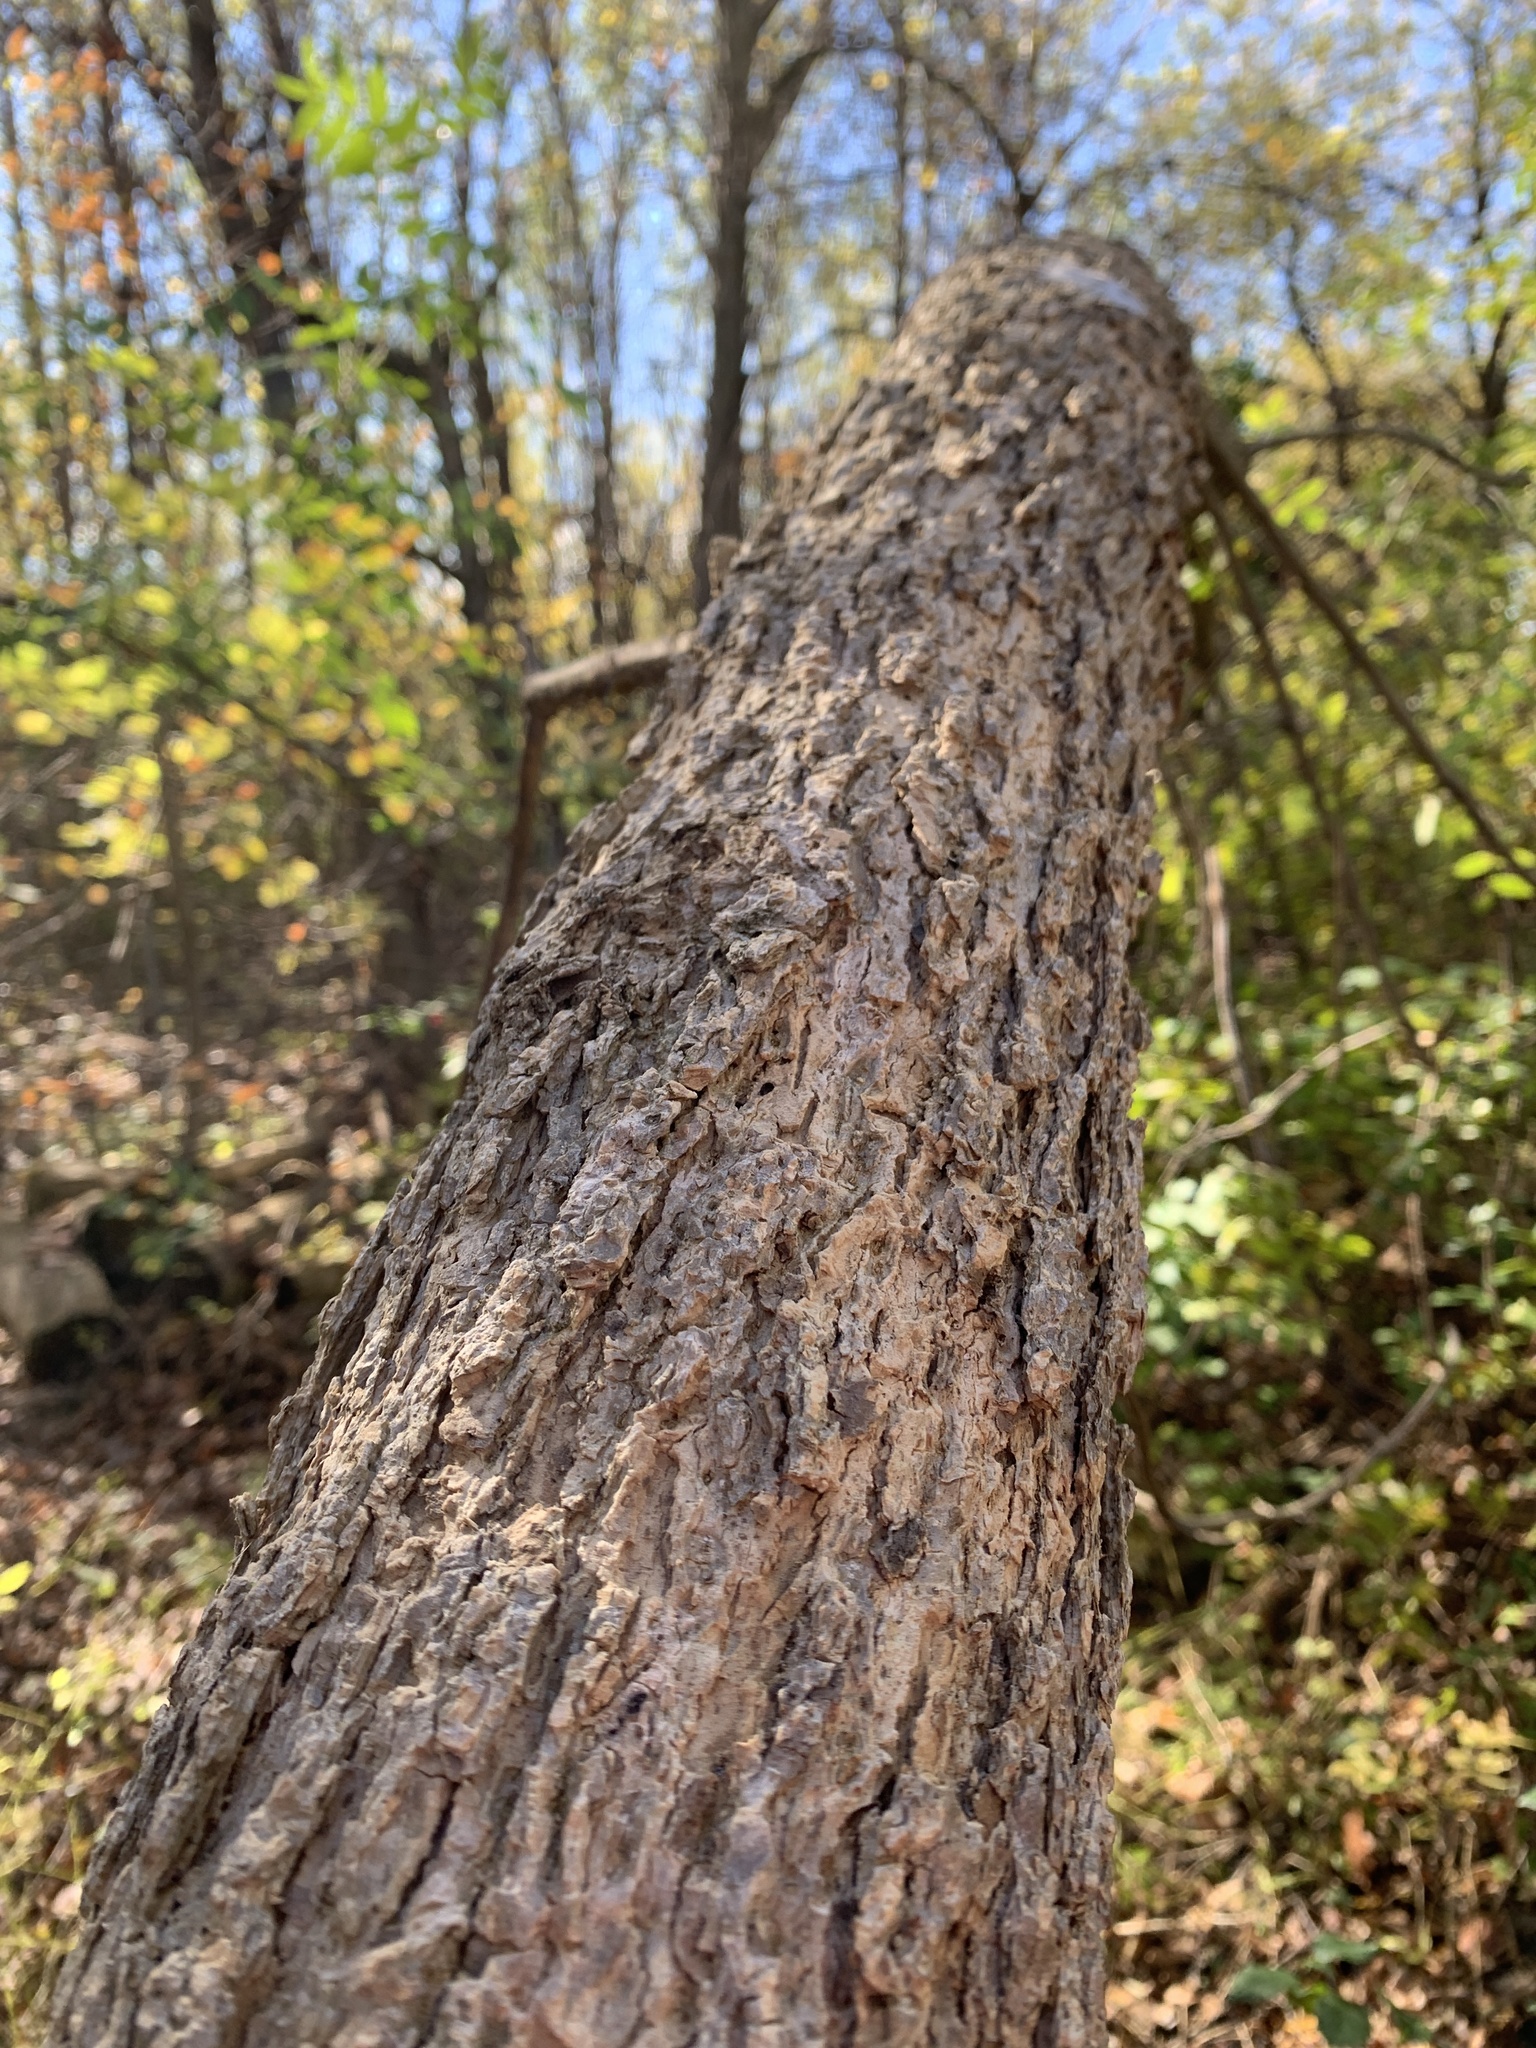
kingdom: Plantae
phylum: Tracheophyta
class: Magnoliopsida
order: Lamiales
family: Oleaceae
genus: Fraxinus
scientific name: Fraxinus nigra
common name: Black ash
